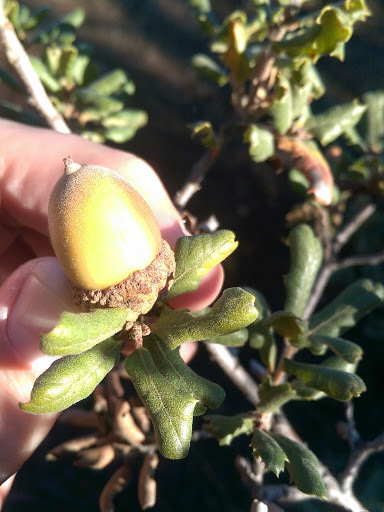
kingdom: Plantae
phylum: Tracheophyta
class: Magnoliopsida
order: Fagales
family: Fagaceae
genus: Quercus
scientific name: Quercus durata
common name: Leather oak
